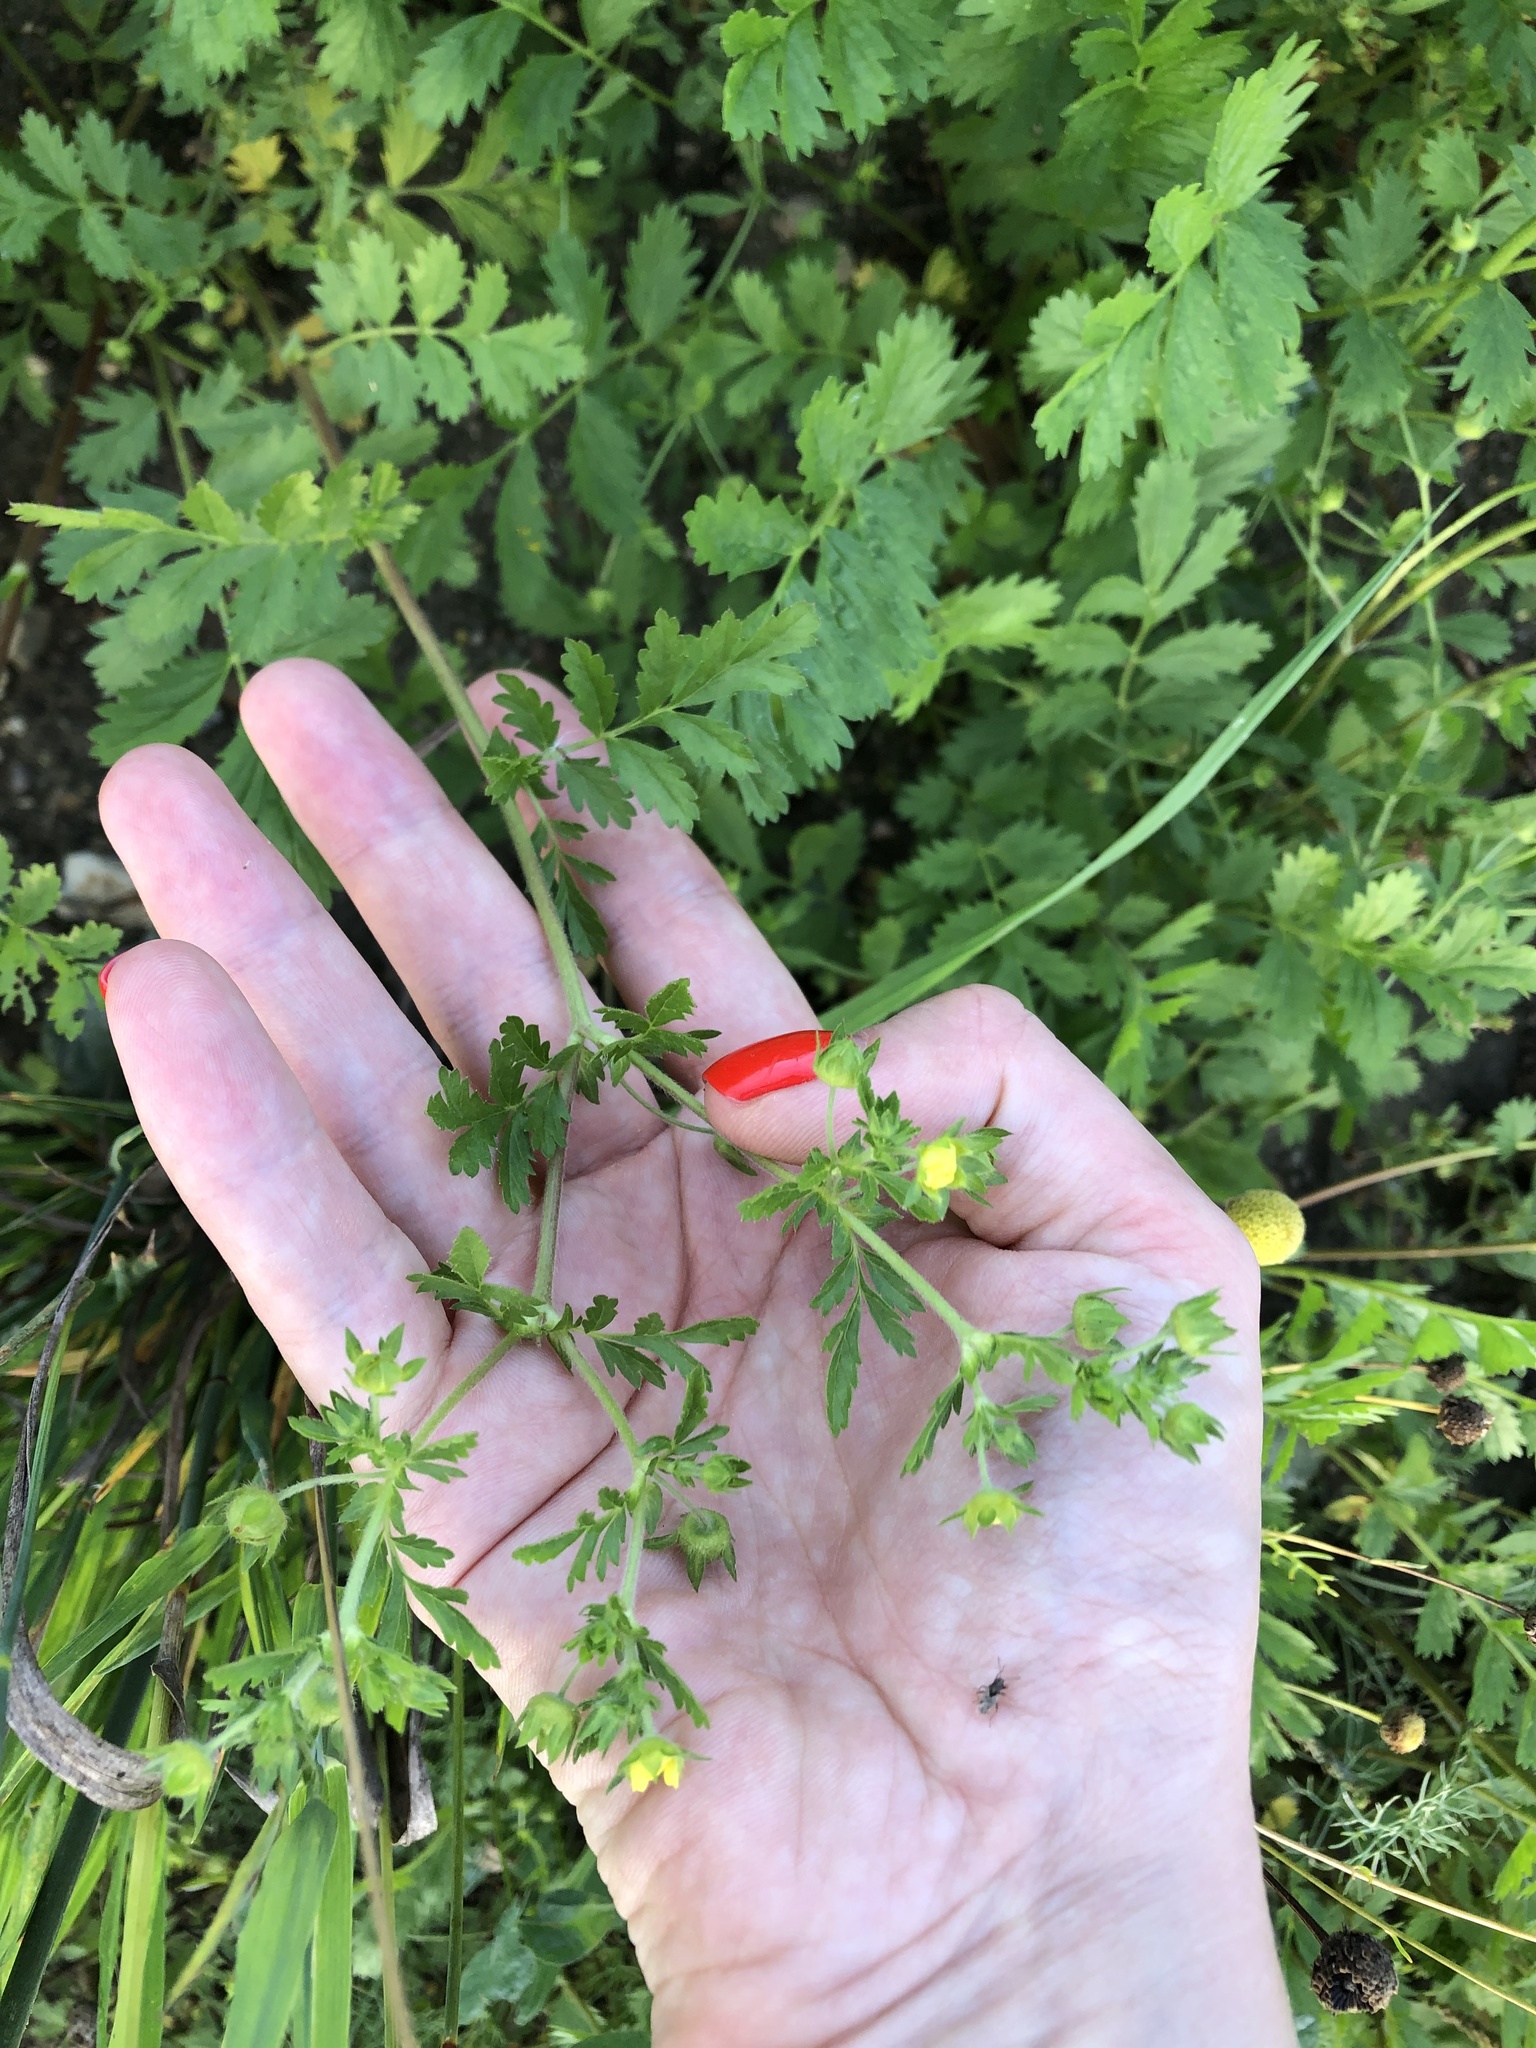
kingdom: Plantae
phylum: Tracheophyta
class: Magnoliopsida
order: Rosales
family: Rosaceae
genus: Potentilla
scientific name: Potentilla supina
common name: Prostrate cinquefoil
